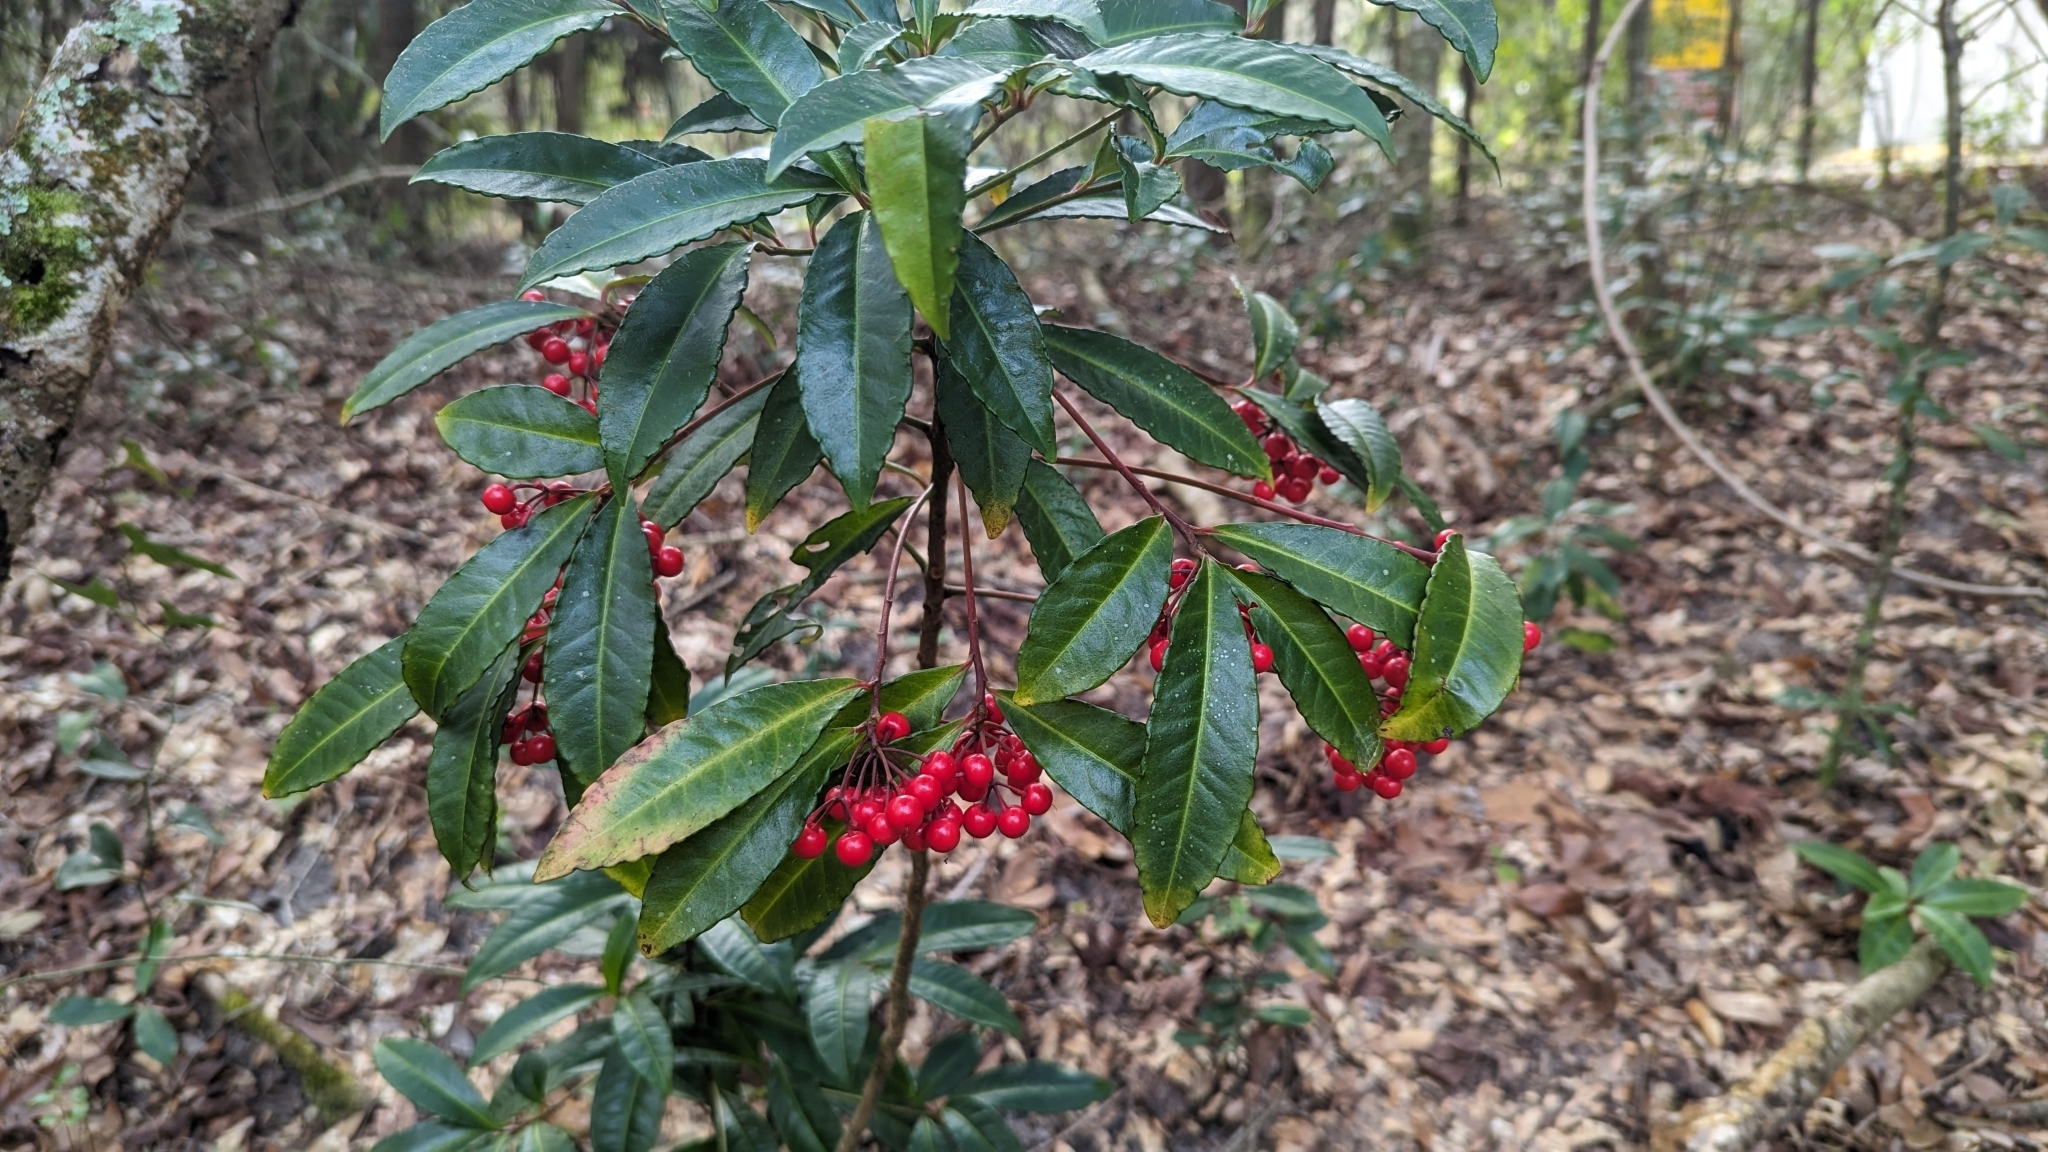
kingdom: Plantae
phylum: Tracheophyta
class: Magnoliopsida
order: Ericales
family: Primulaceae
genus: Ardisia
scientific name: Ardisia crenata
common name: Hen's eyes
